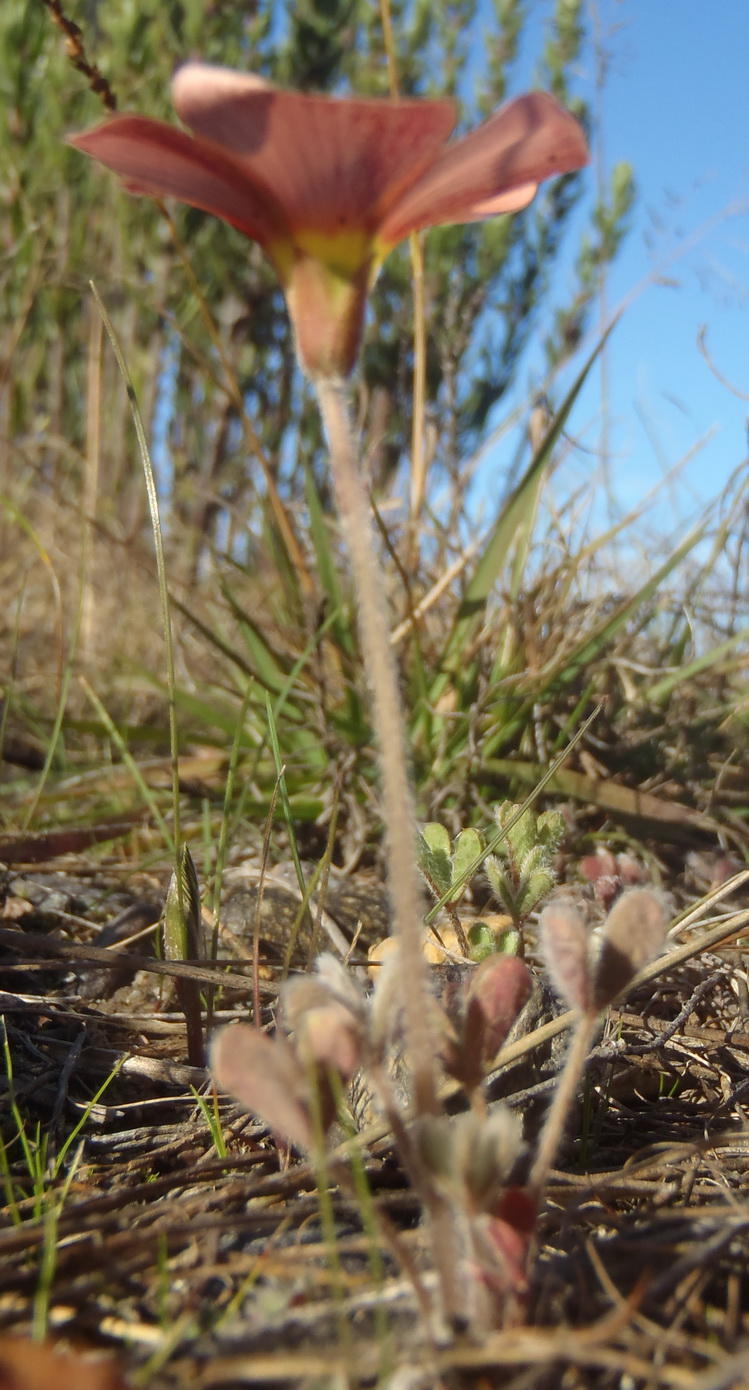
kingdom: Plantae
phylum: Tracheophyta
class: Magnoliopsida
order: Oxalidales
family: Oxalidaceae
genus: Oxalis
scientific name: Oxalis obtusa
